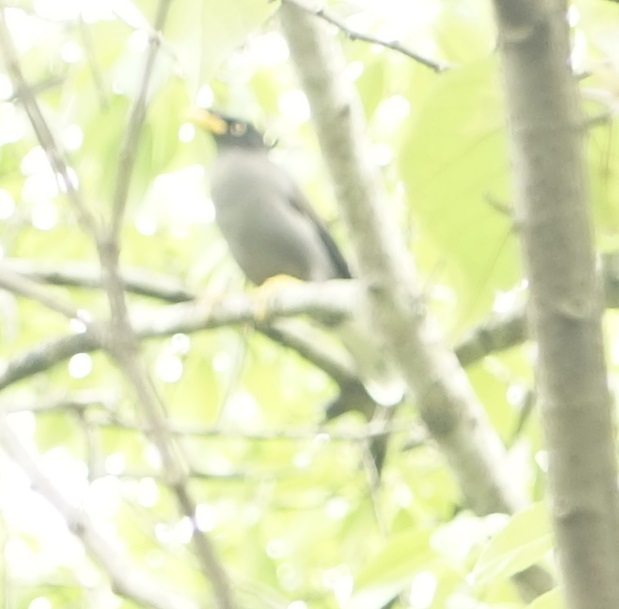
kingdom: Animalia
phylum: Chordata
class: Aves
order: Passeriformes
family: Sturnidae
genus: Acridotheres
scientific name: Acridotheres javanicus
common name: Javan myna
